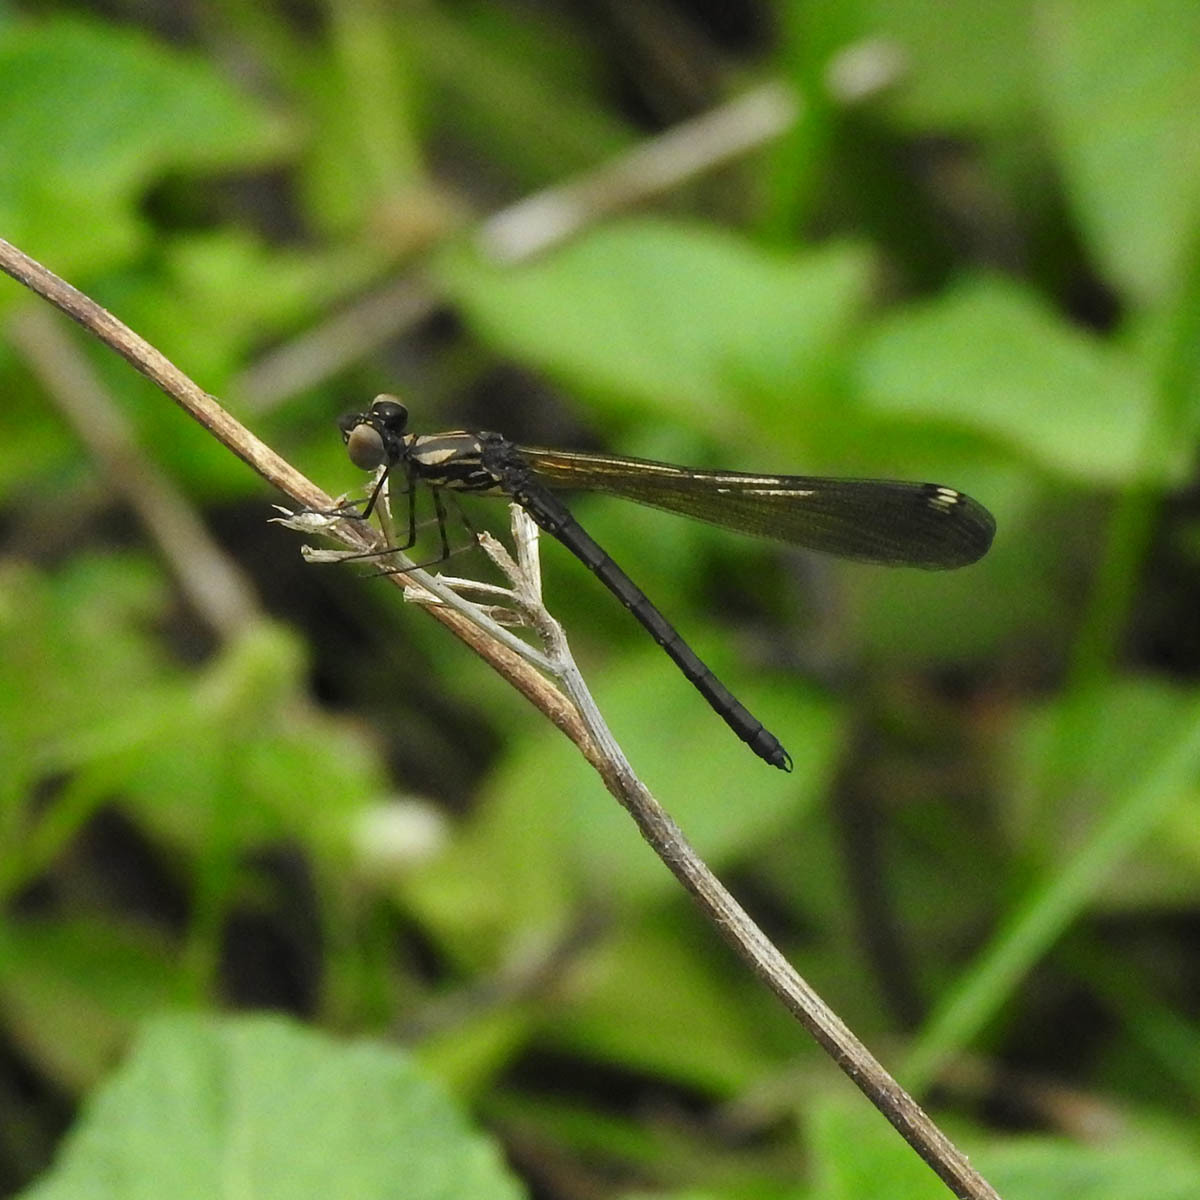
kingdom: Animalia
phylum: Arthropoda
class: Insecta
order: Odonata
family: Chlorocyphidae
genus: Heliocypha
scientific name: Heliocypha bisignata
